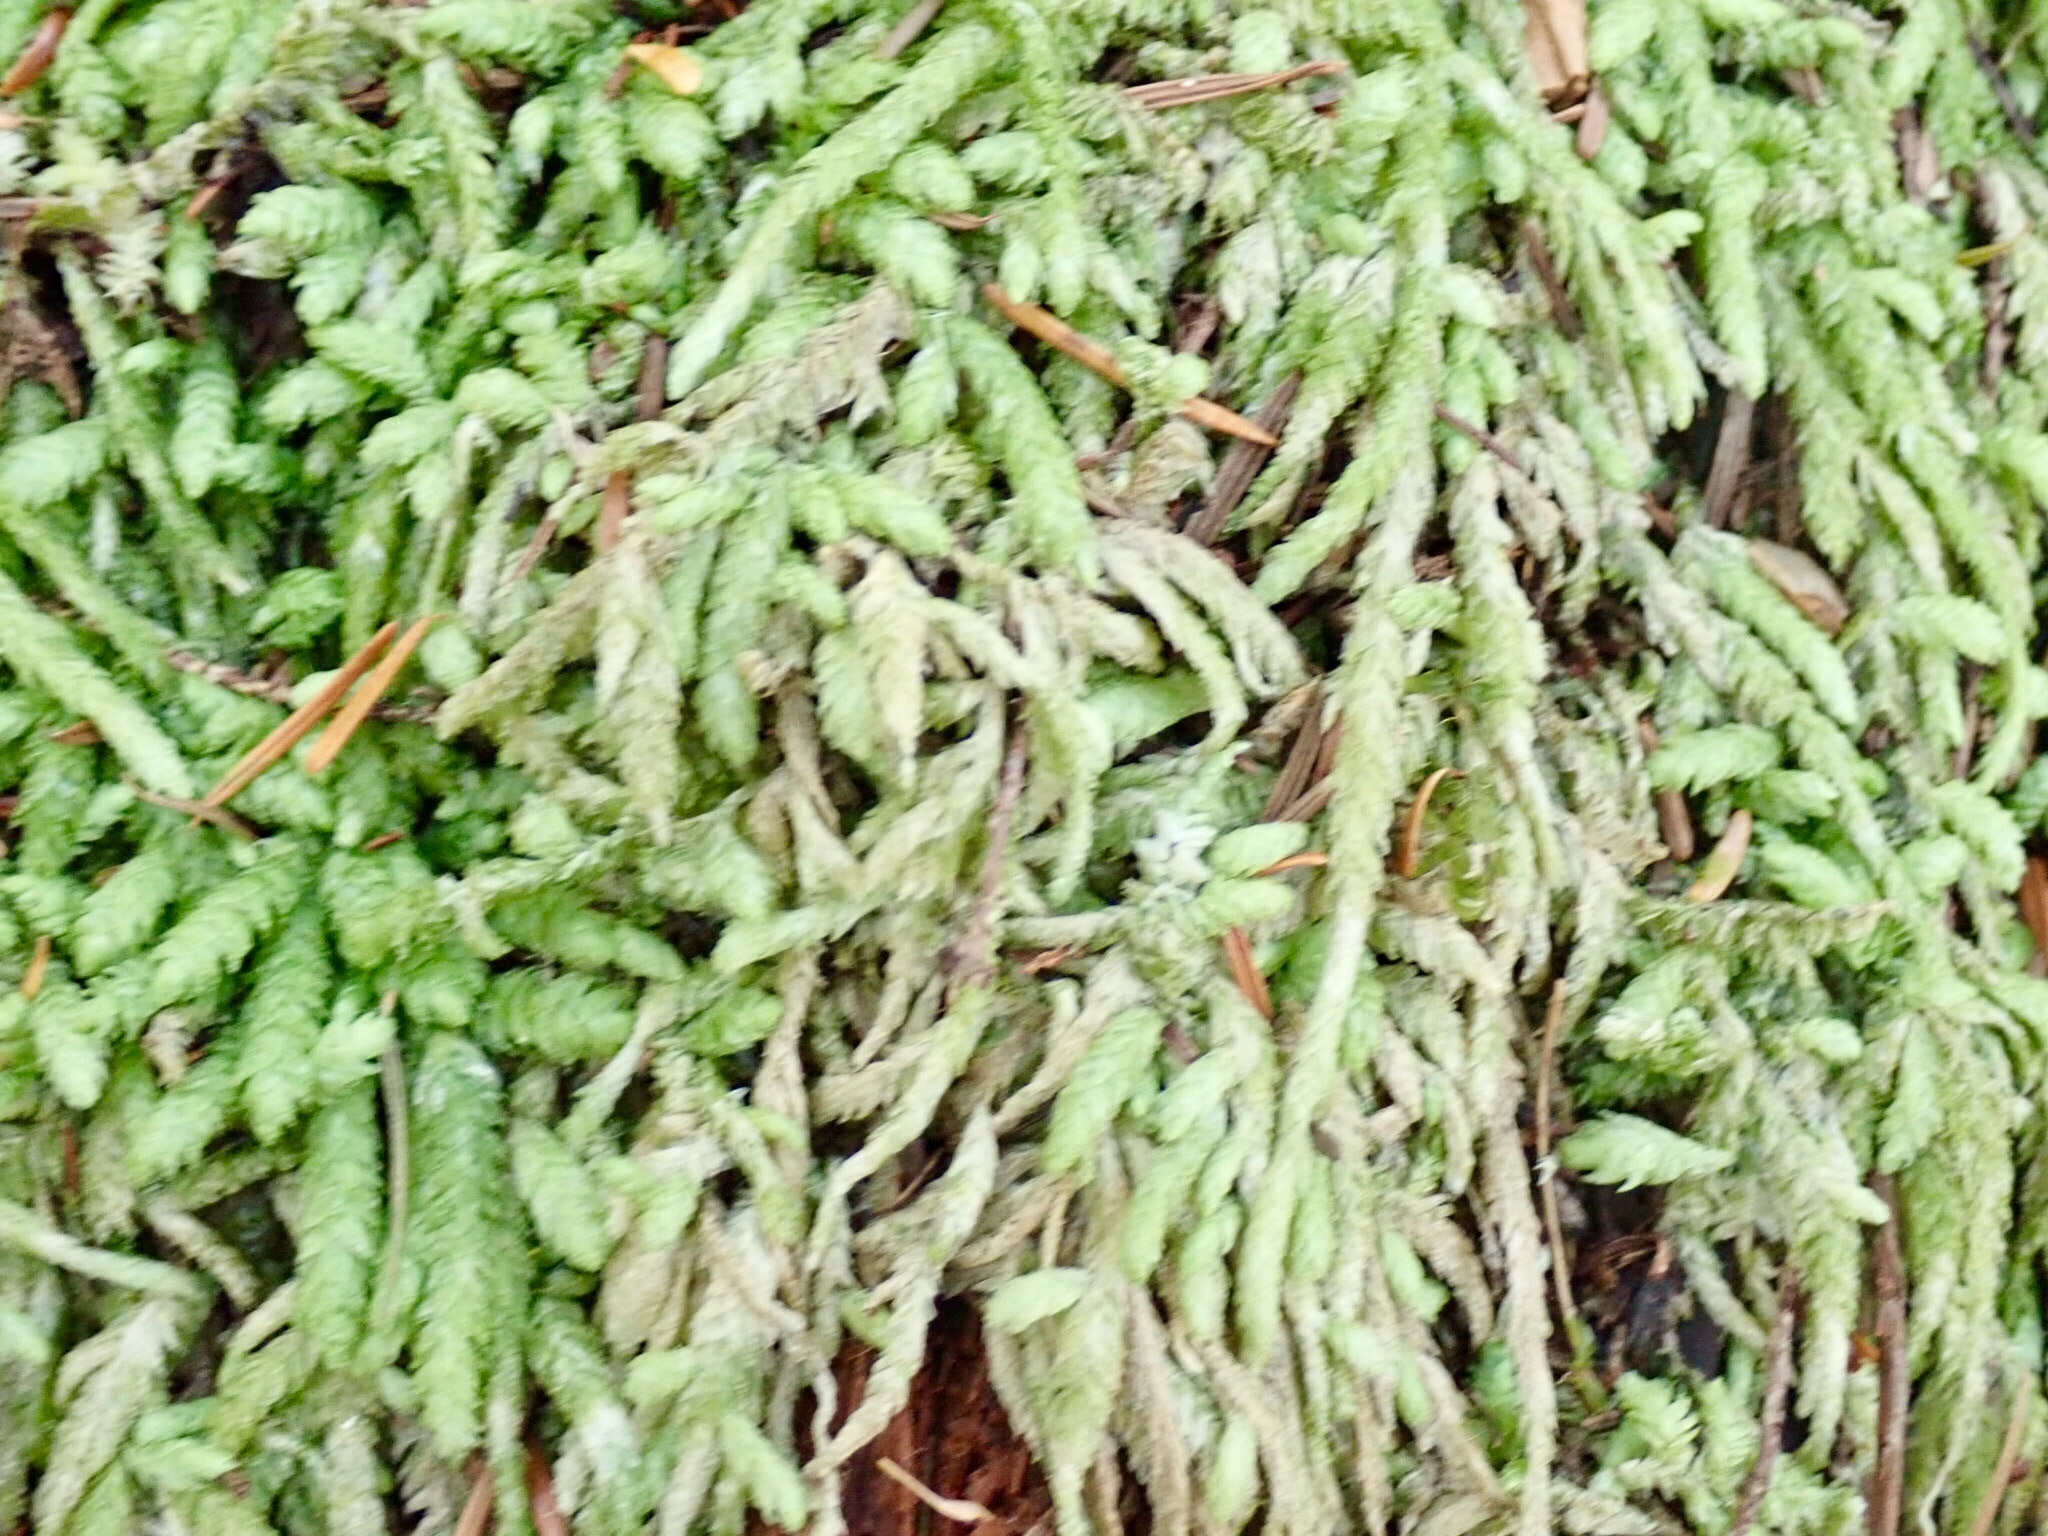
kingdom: Plantae
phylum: Bryophyta
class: Bryopsida
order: Hypnales
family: Plagiotheciaceae
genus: Plagiothecium
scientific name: Plagiothecium undulatum
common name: Waved silk-moss
